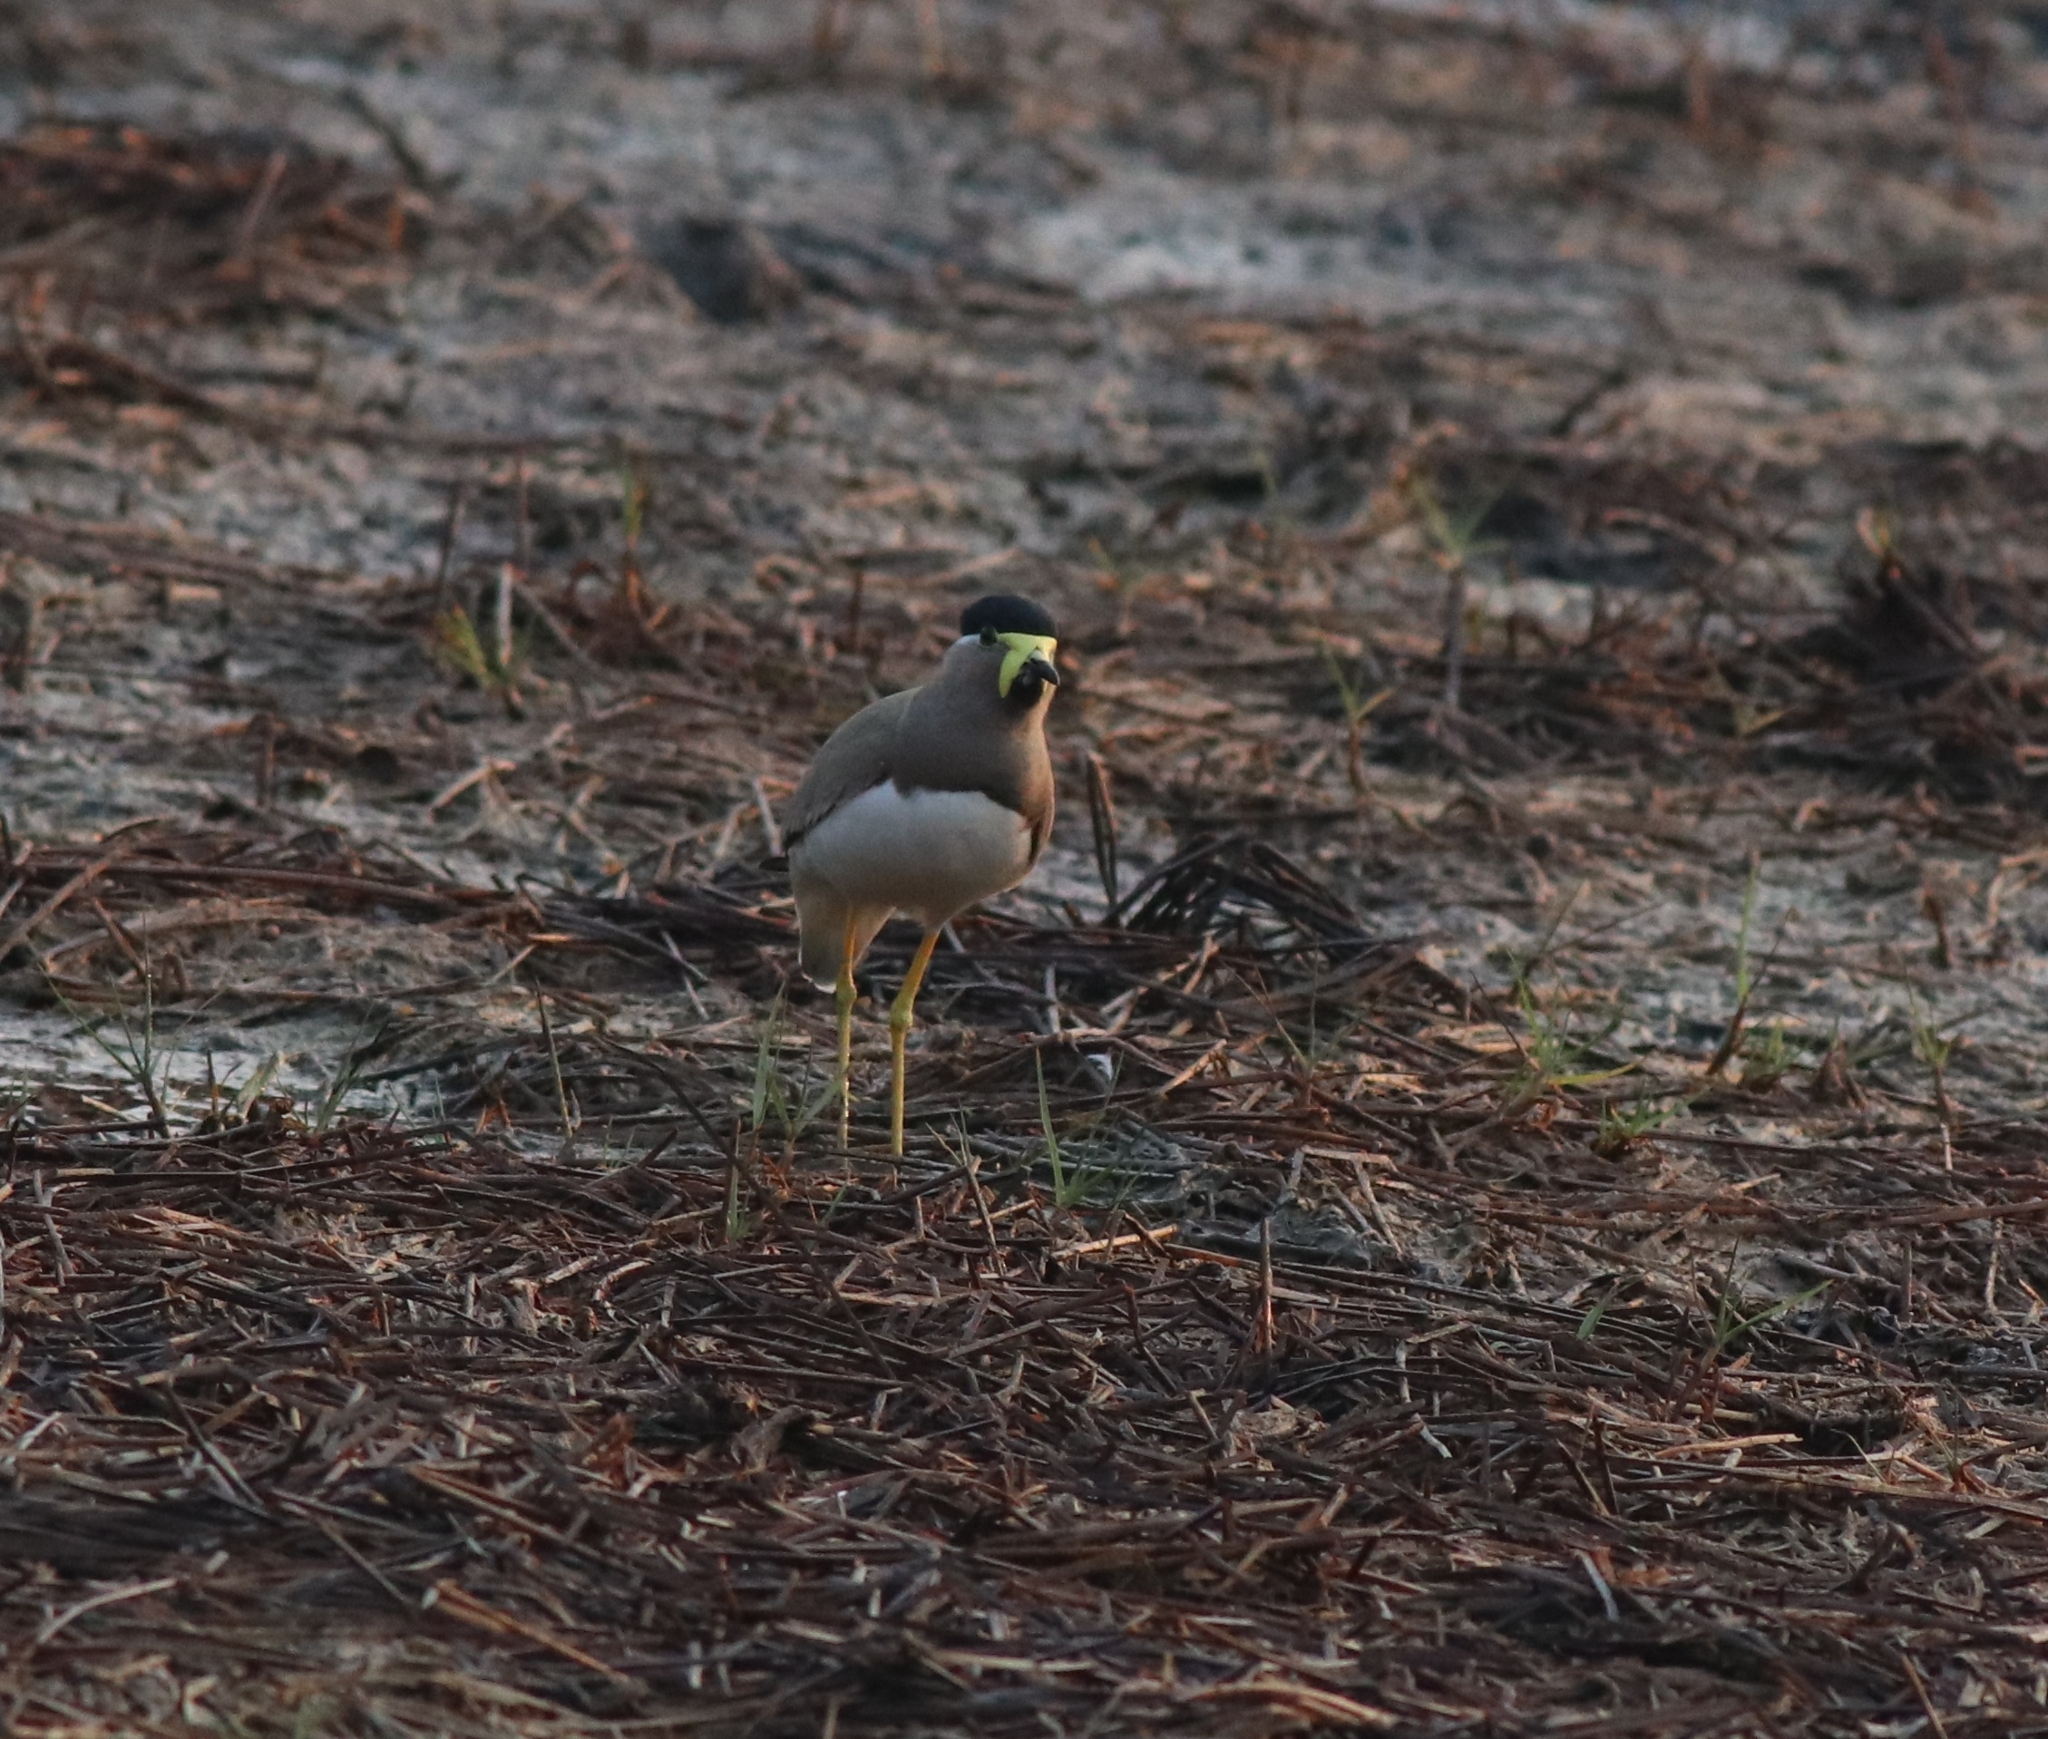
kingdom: Animalia
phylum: Chordata
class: Aves
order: Charadriiformes
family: Charadriidae
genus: Vanellus
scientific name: Vanellus malabaricus
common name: Yellow-wattled lapwing
